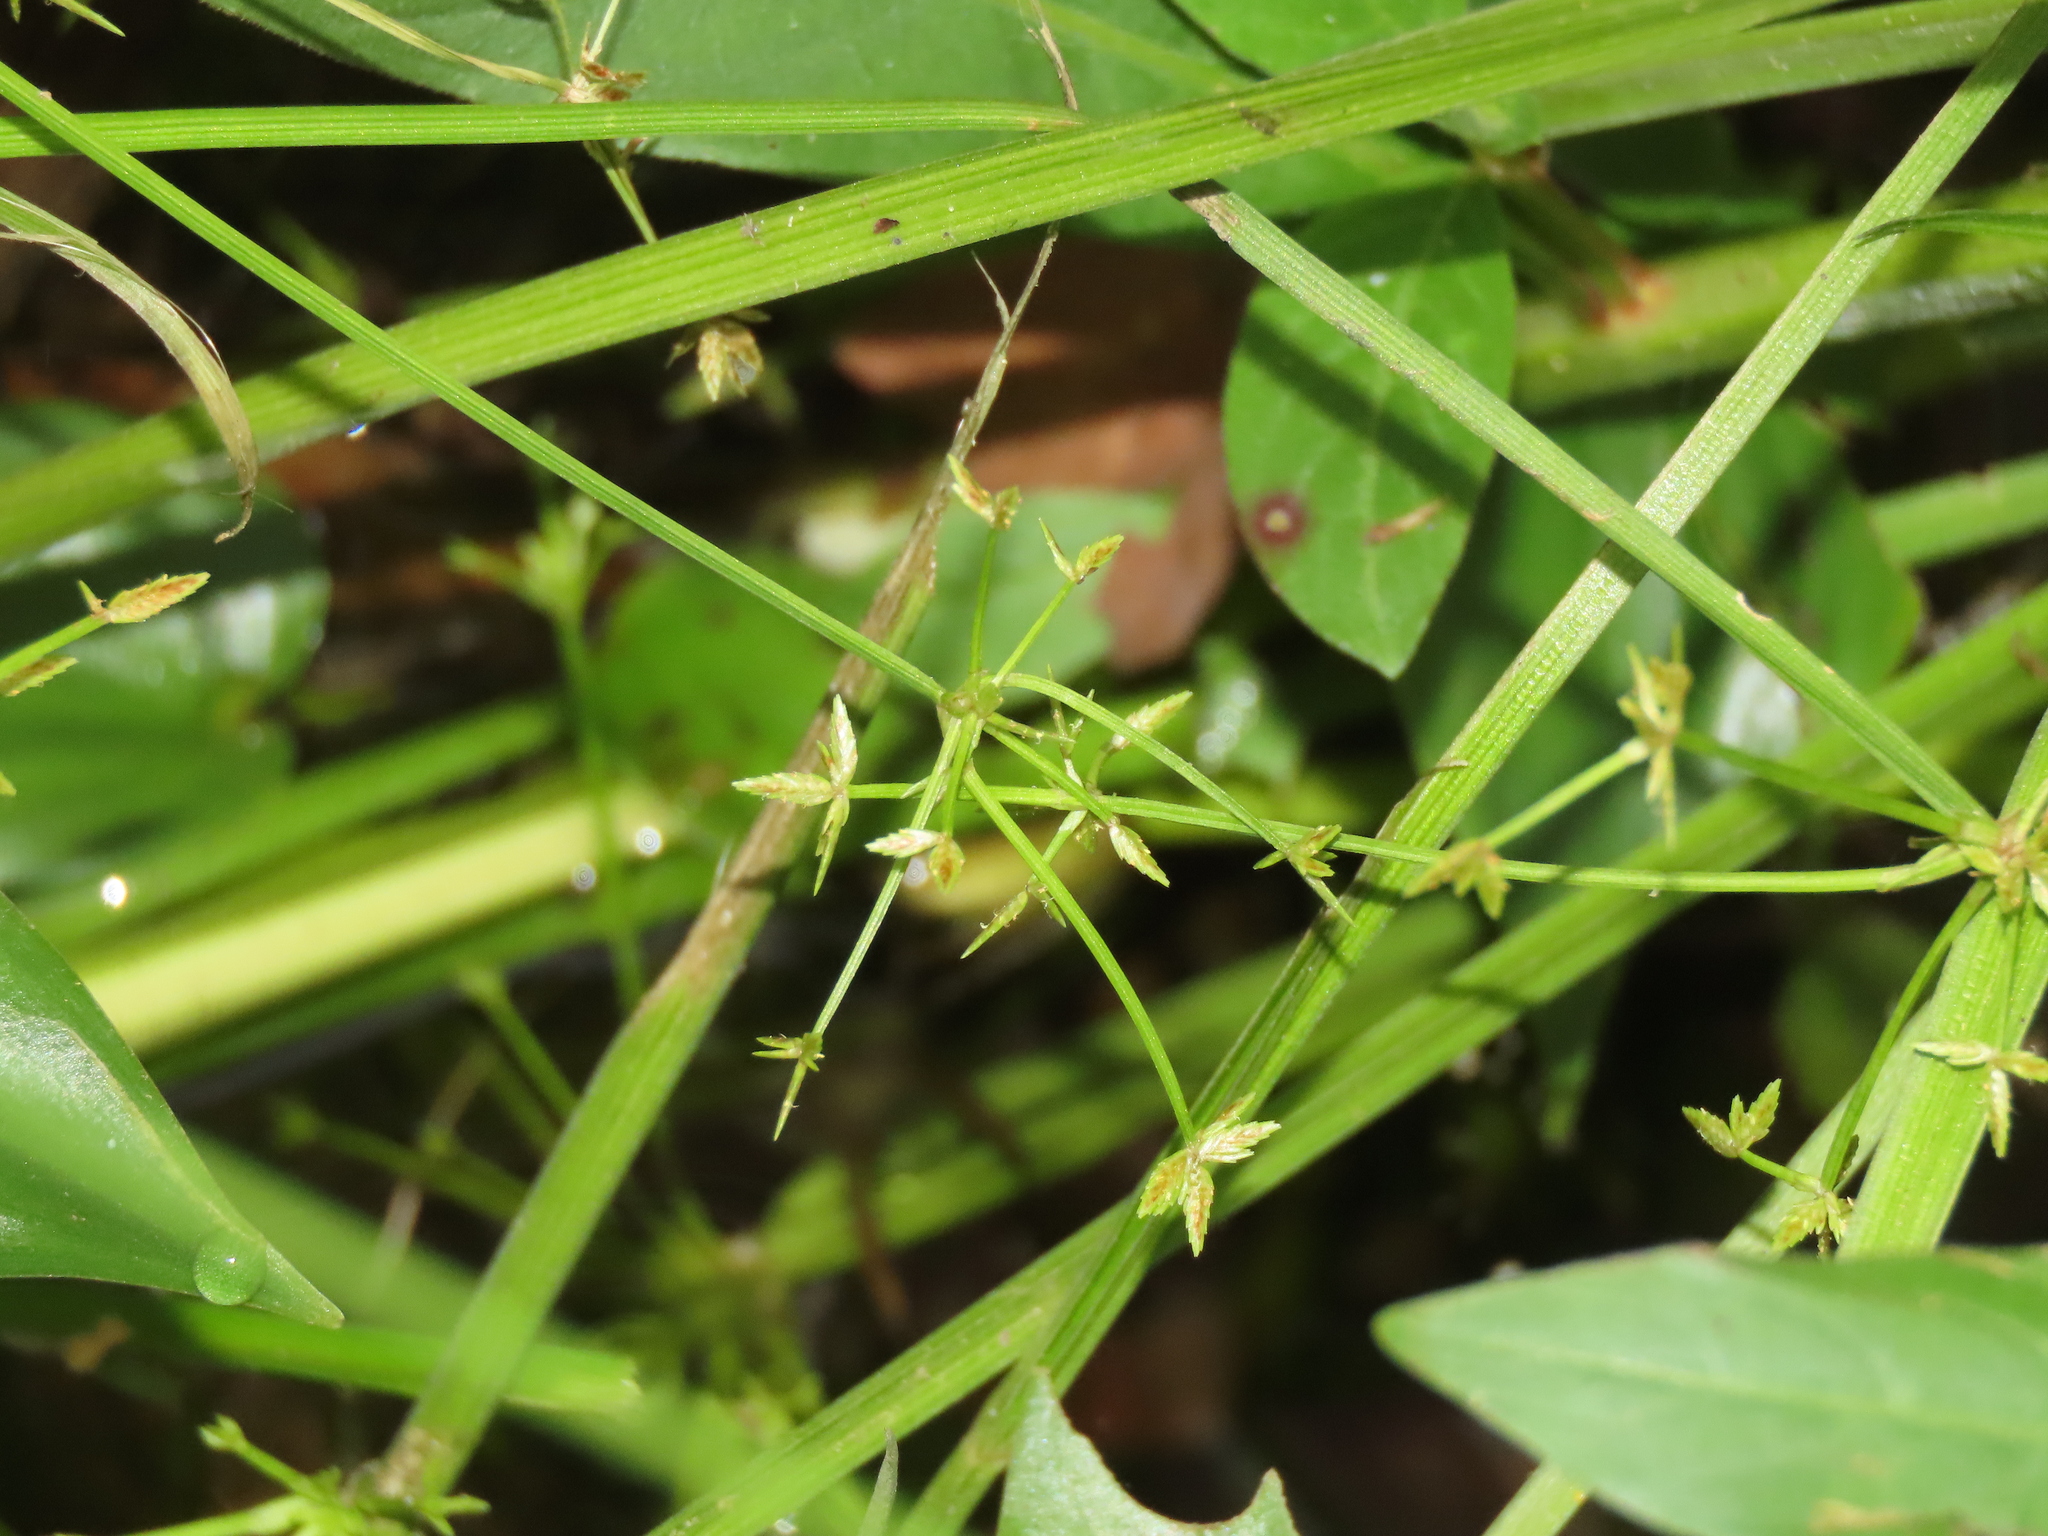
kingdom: Plantae
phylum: Tracheophyta
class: Liliopsida
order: Poales
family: Cyperaceae
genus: Cyperus
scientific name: Cyperus haspan
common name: Haspan flatsedge
